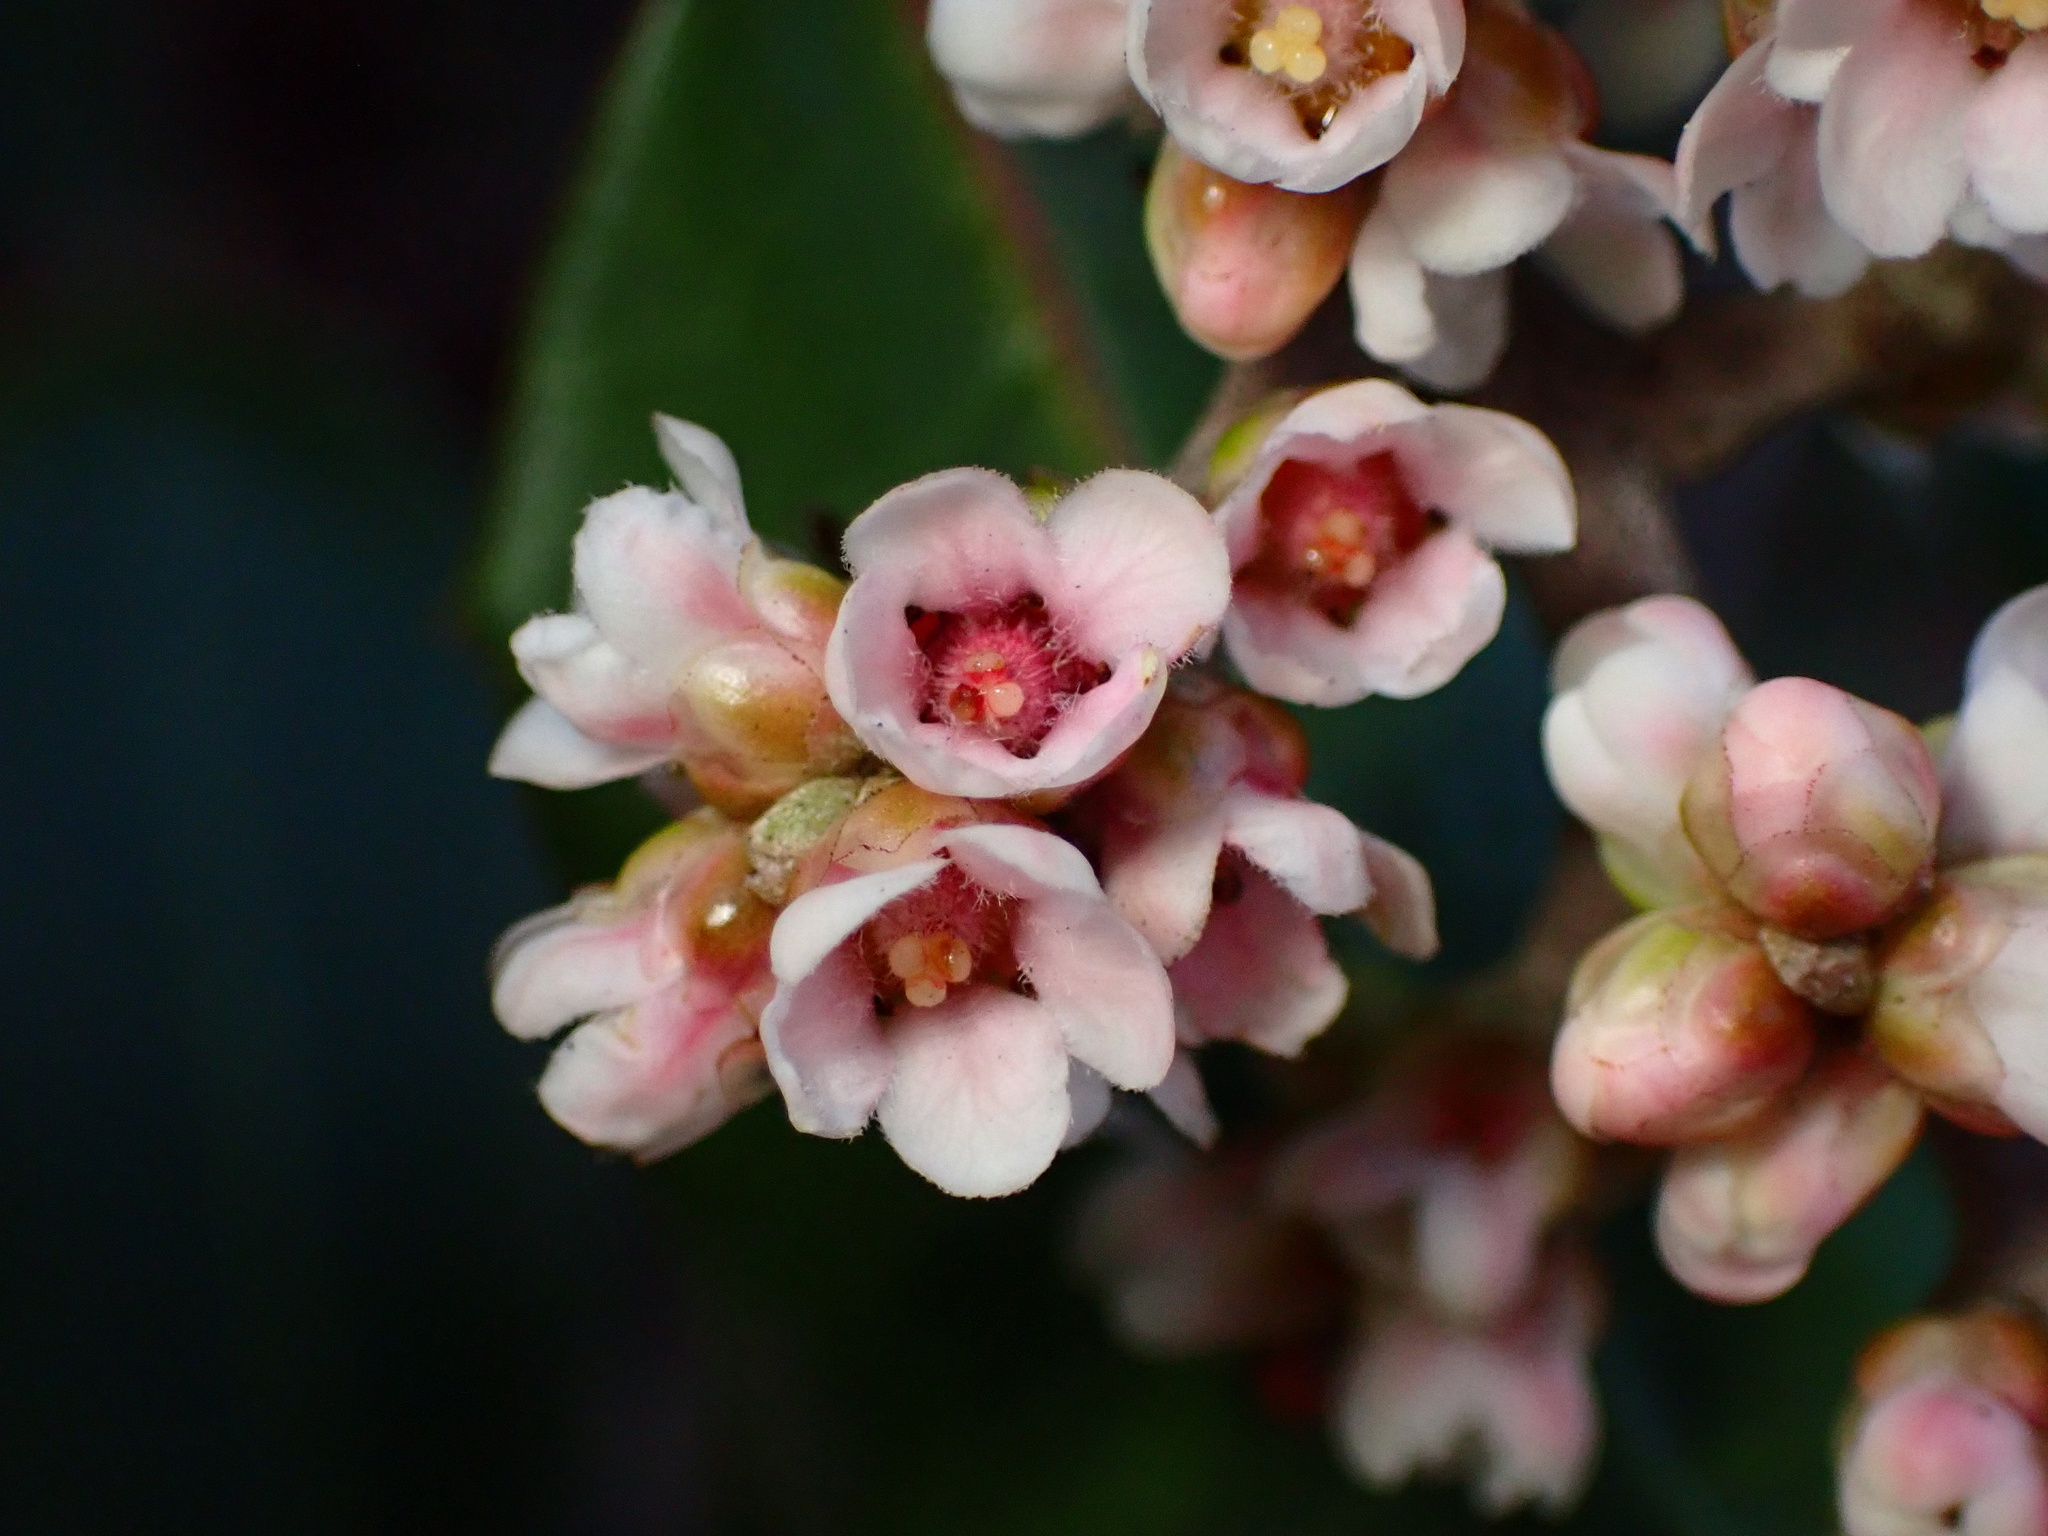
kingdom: Plantae
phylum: Tracheophyta
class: Magnoliopsida
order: Sapindales
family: Anacardiaceae
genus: Rhus
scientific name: Rhus integrifolia
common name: Lemonade sumac
